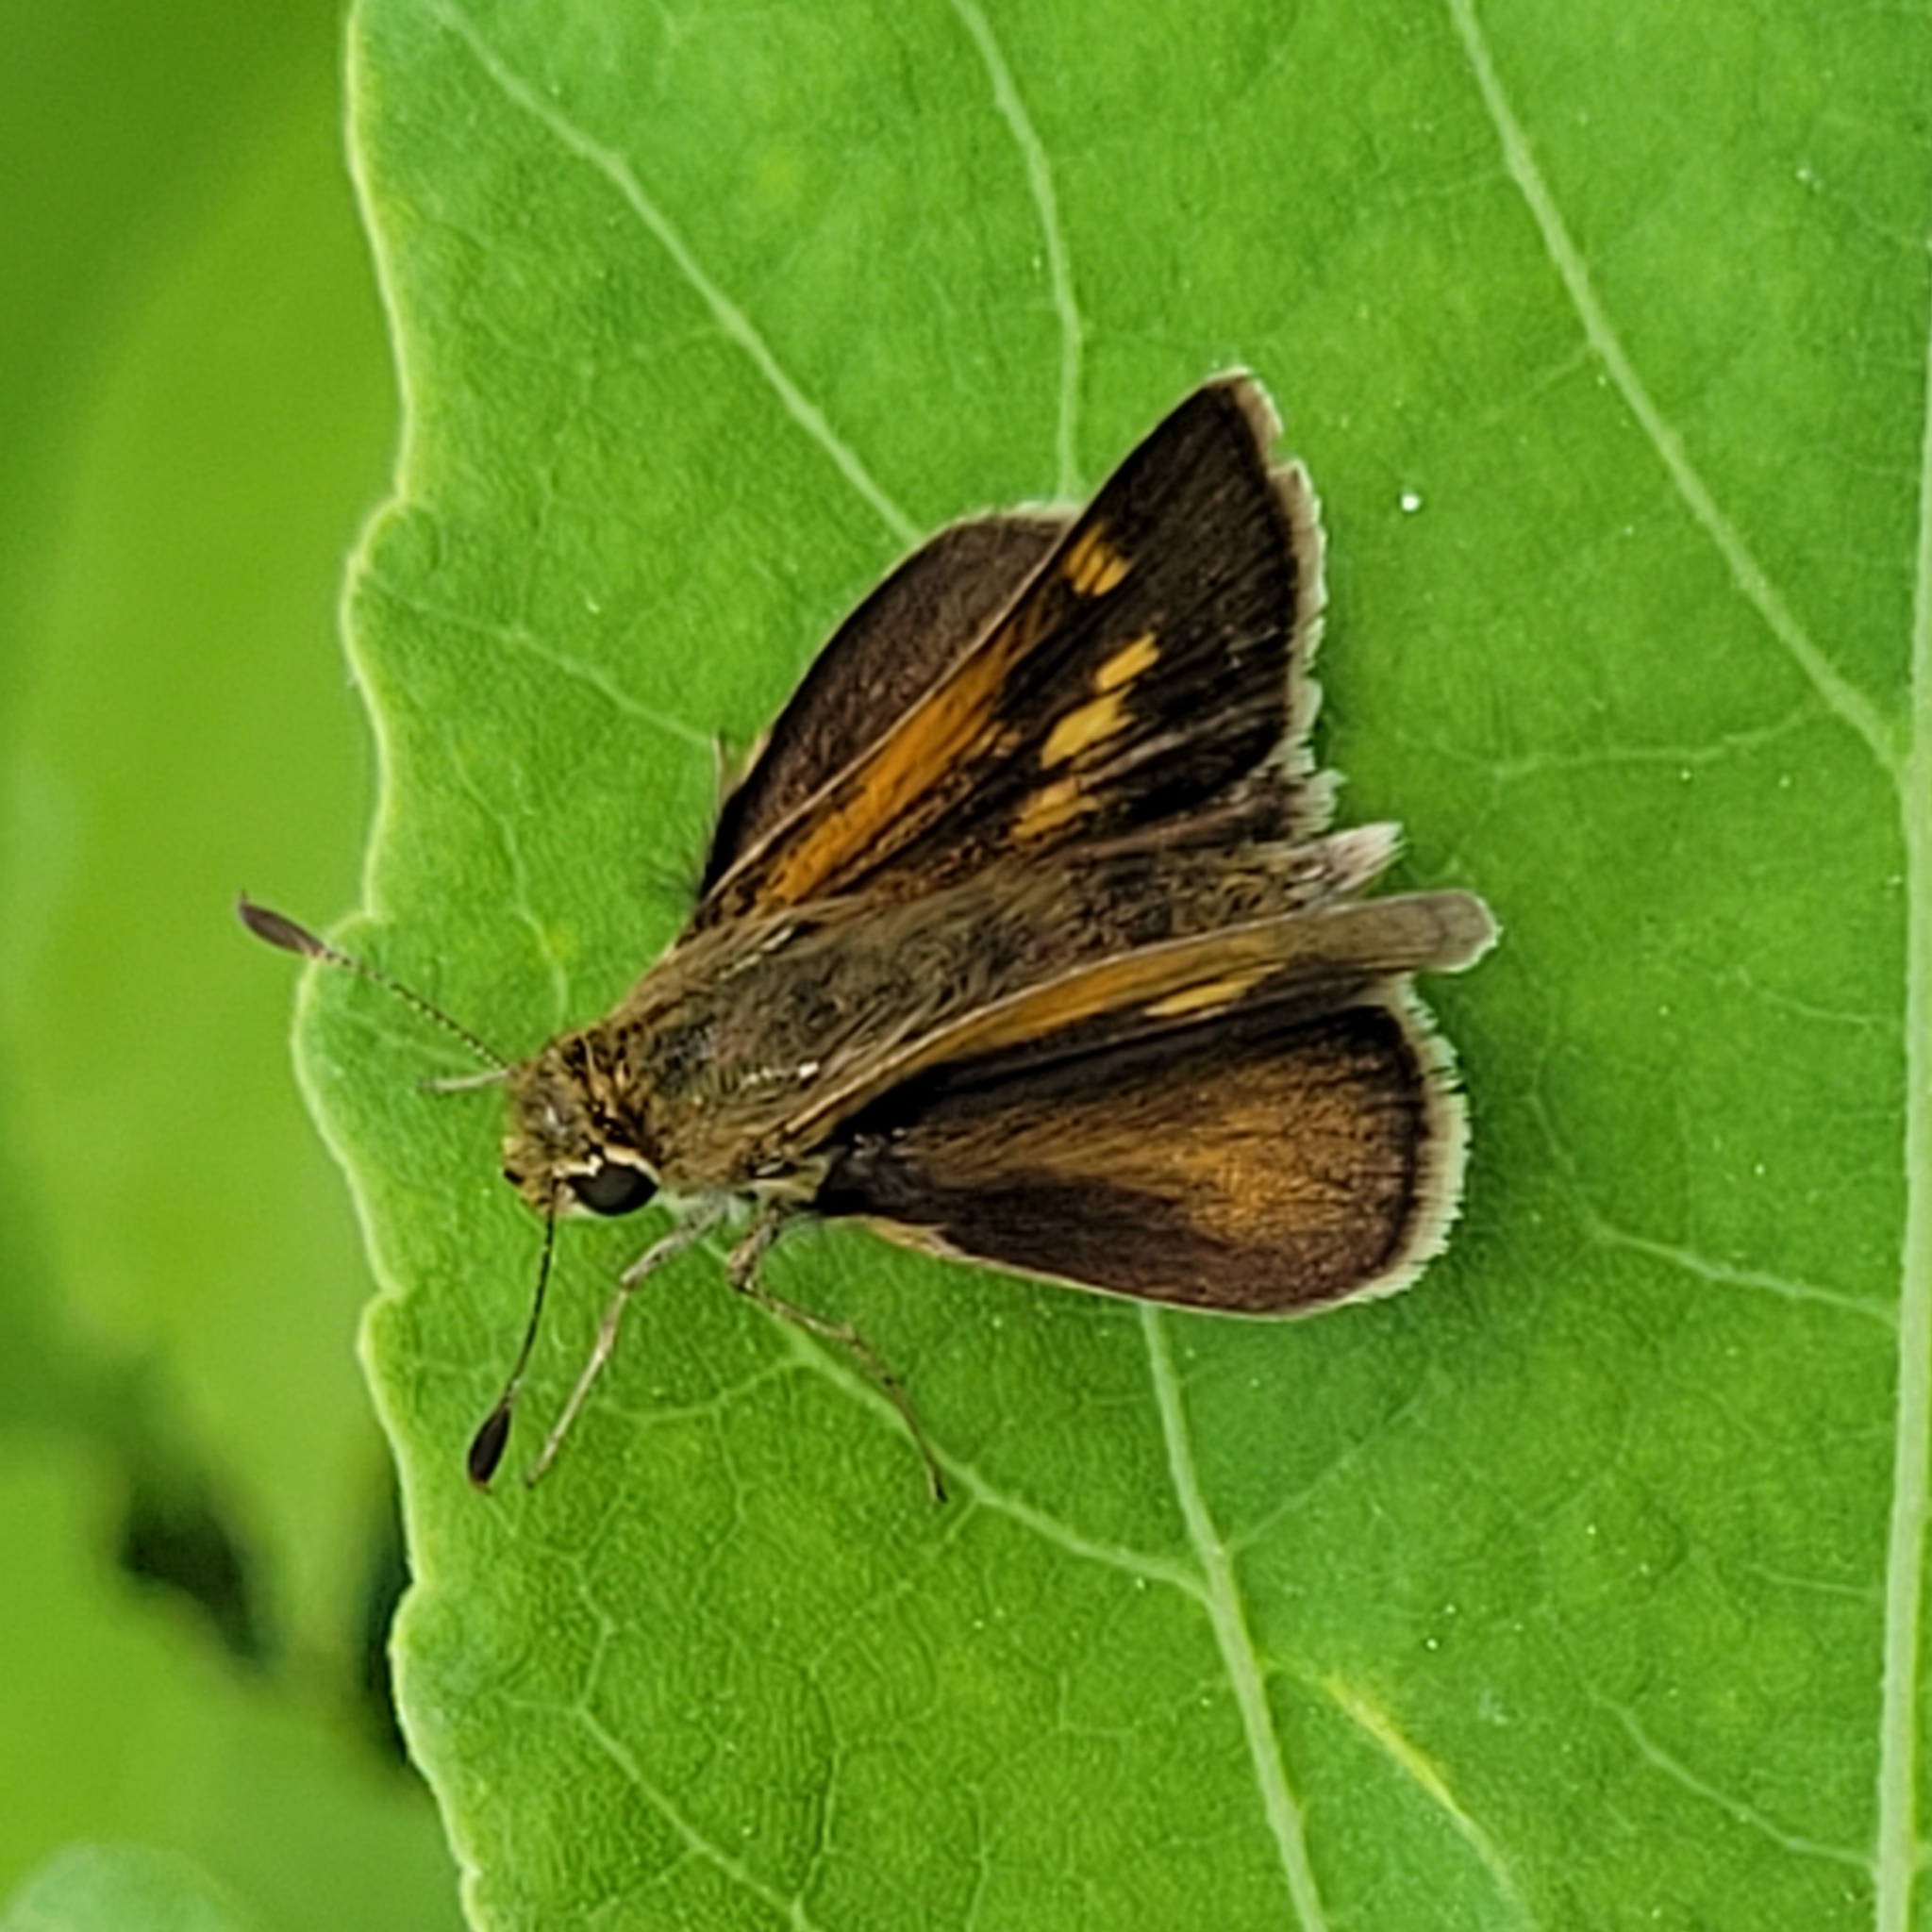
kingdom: Animalia
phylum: Arthropoda
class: Insecta
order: Lepidoptera
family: Hesperiidae
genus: Polites
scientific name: Polites themistocles
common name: Tawny-edged skipper
